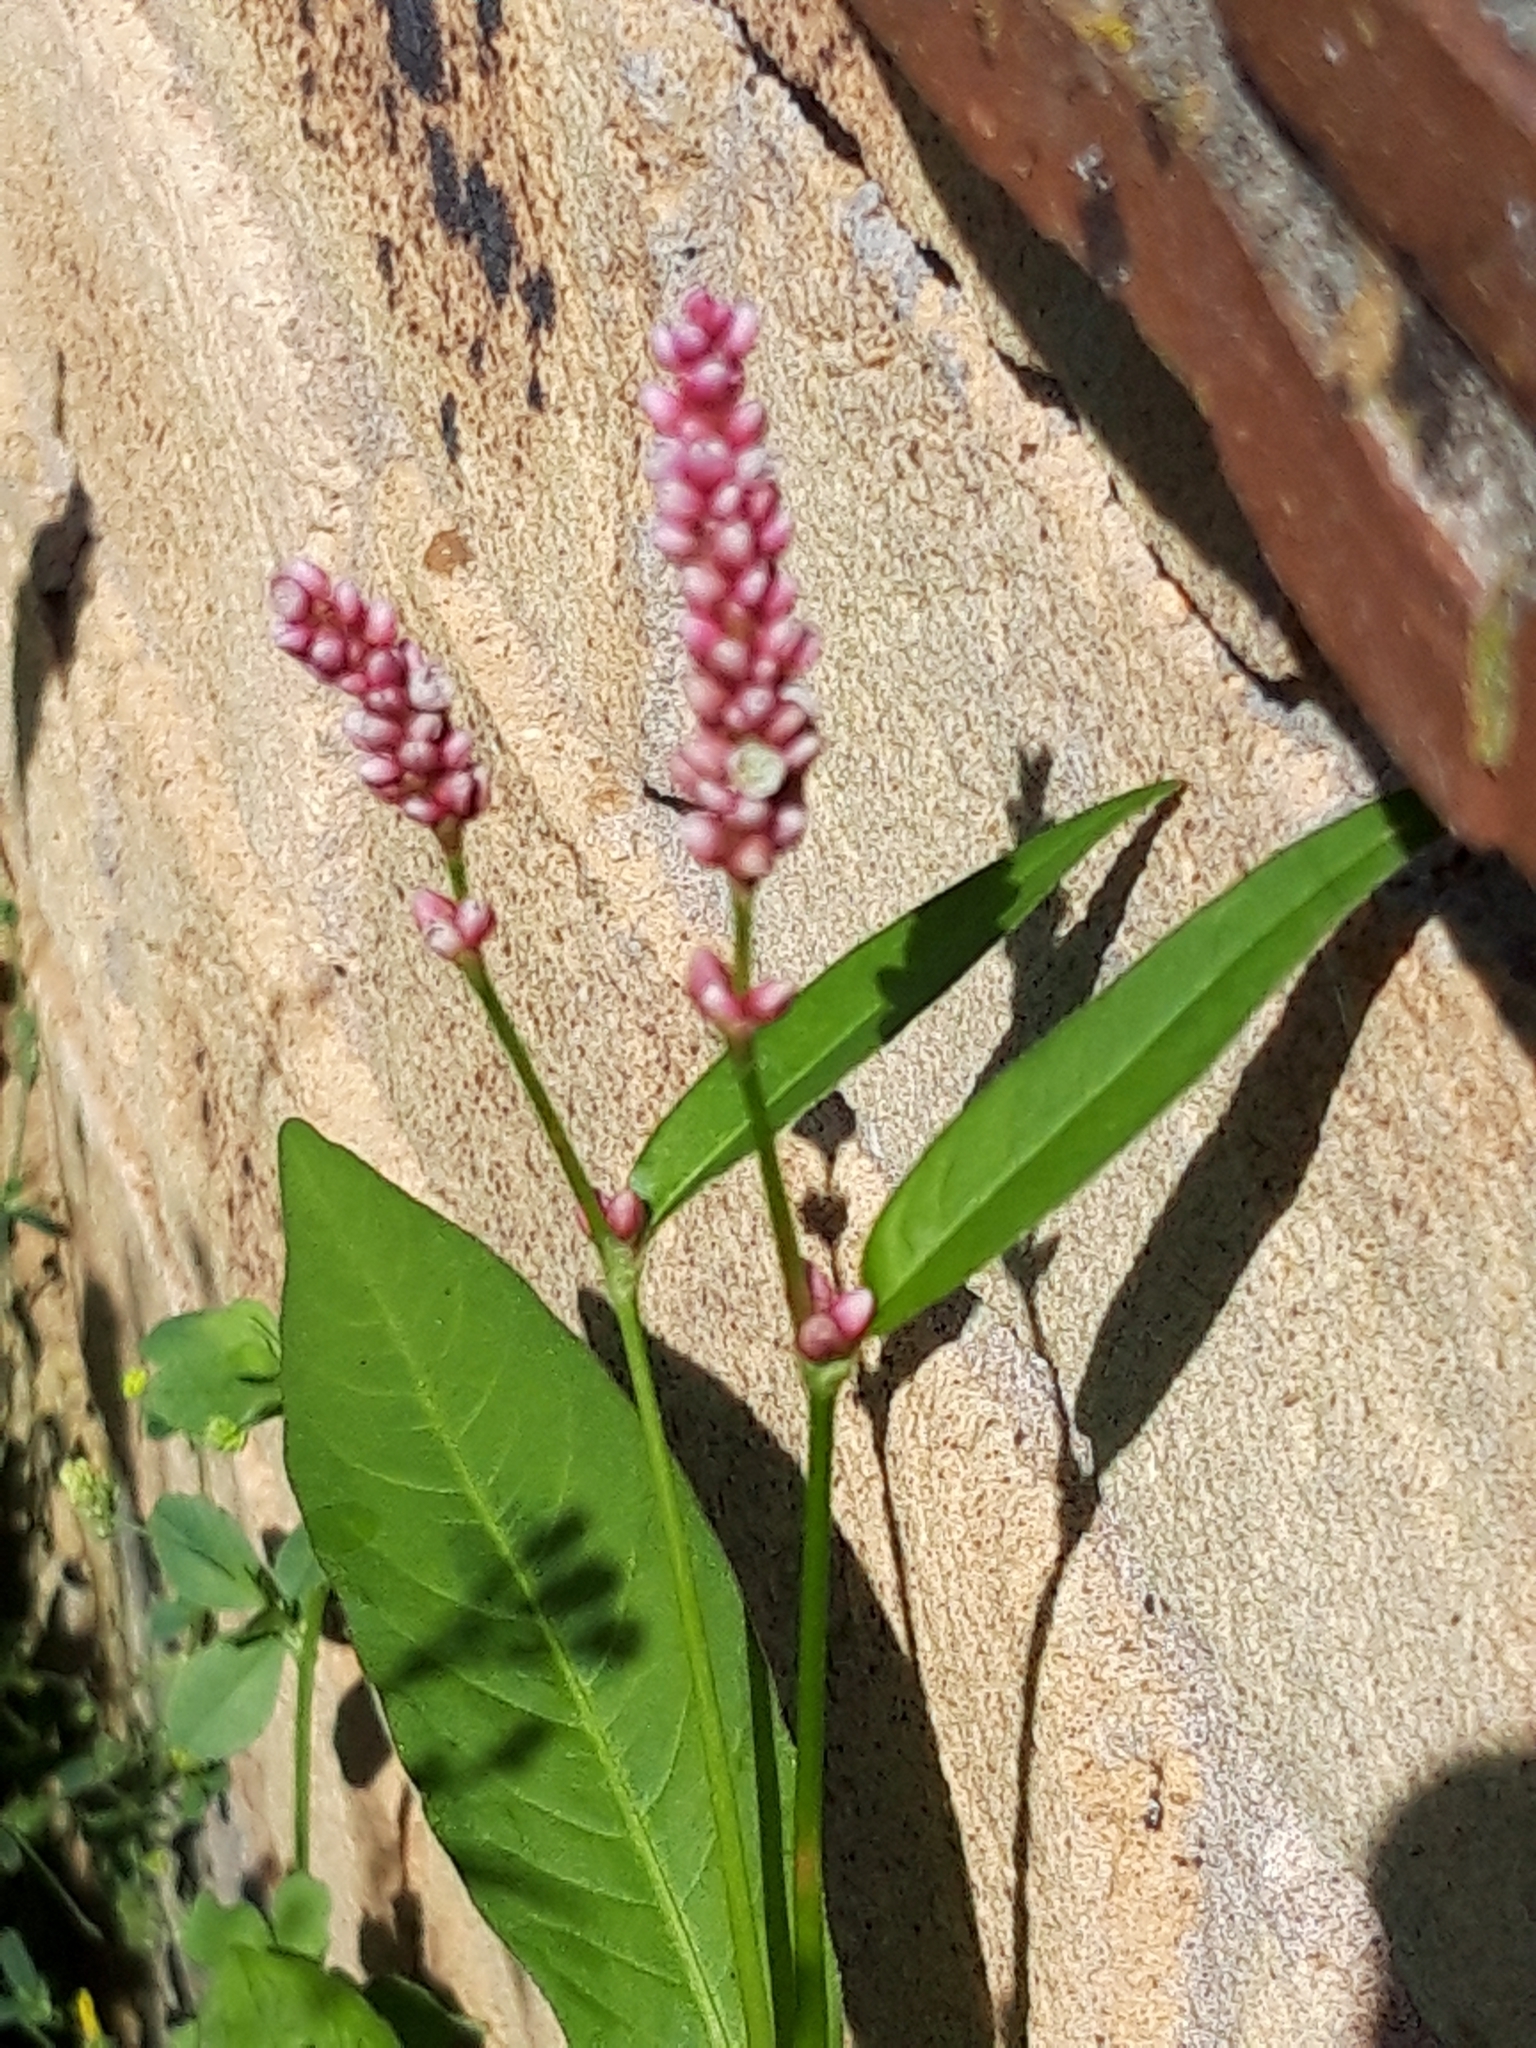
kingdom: Plantae
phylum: Tracheophyta
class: Magnoliopsida
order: Caryophyllales
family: Polygonaceae
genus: Persicaria
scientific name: Persicaria maculosa
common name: Redshank
